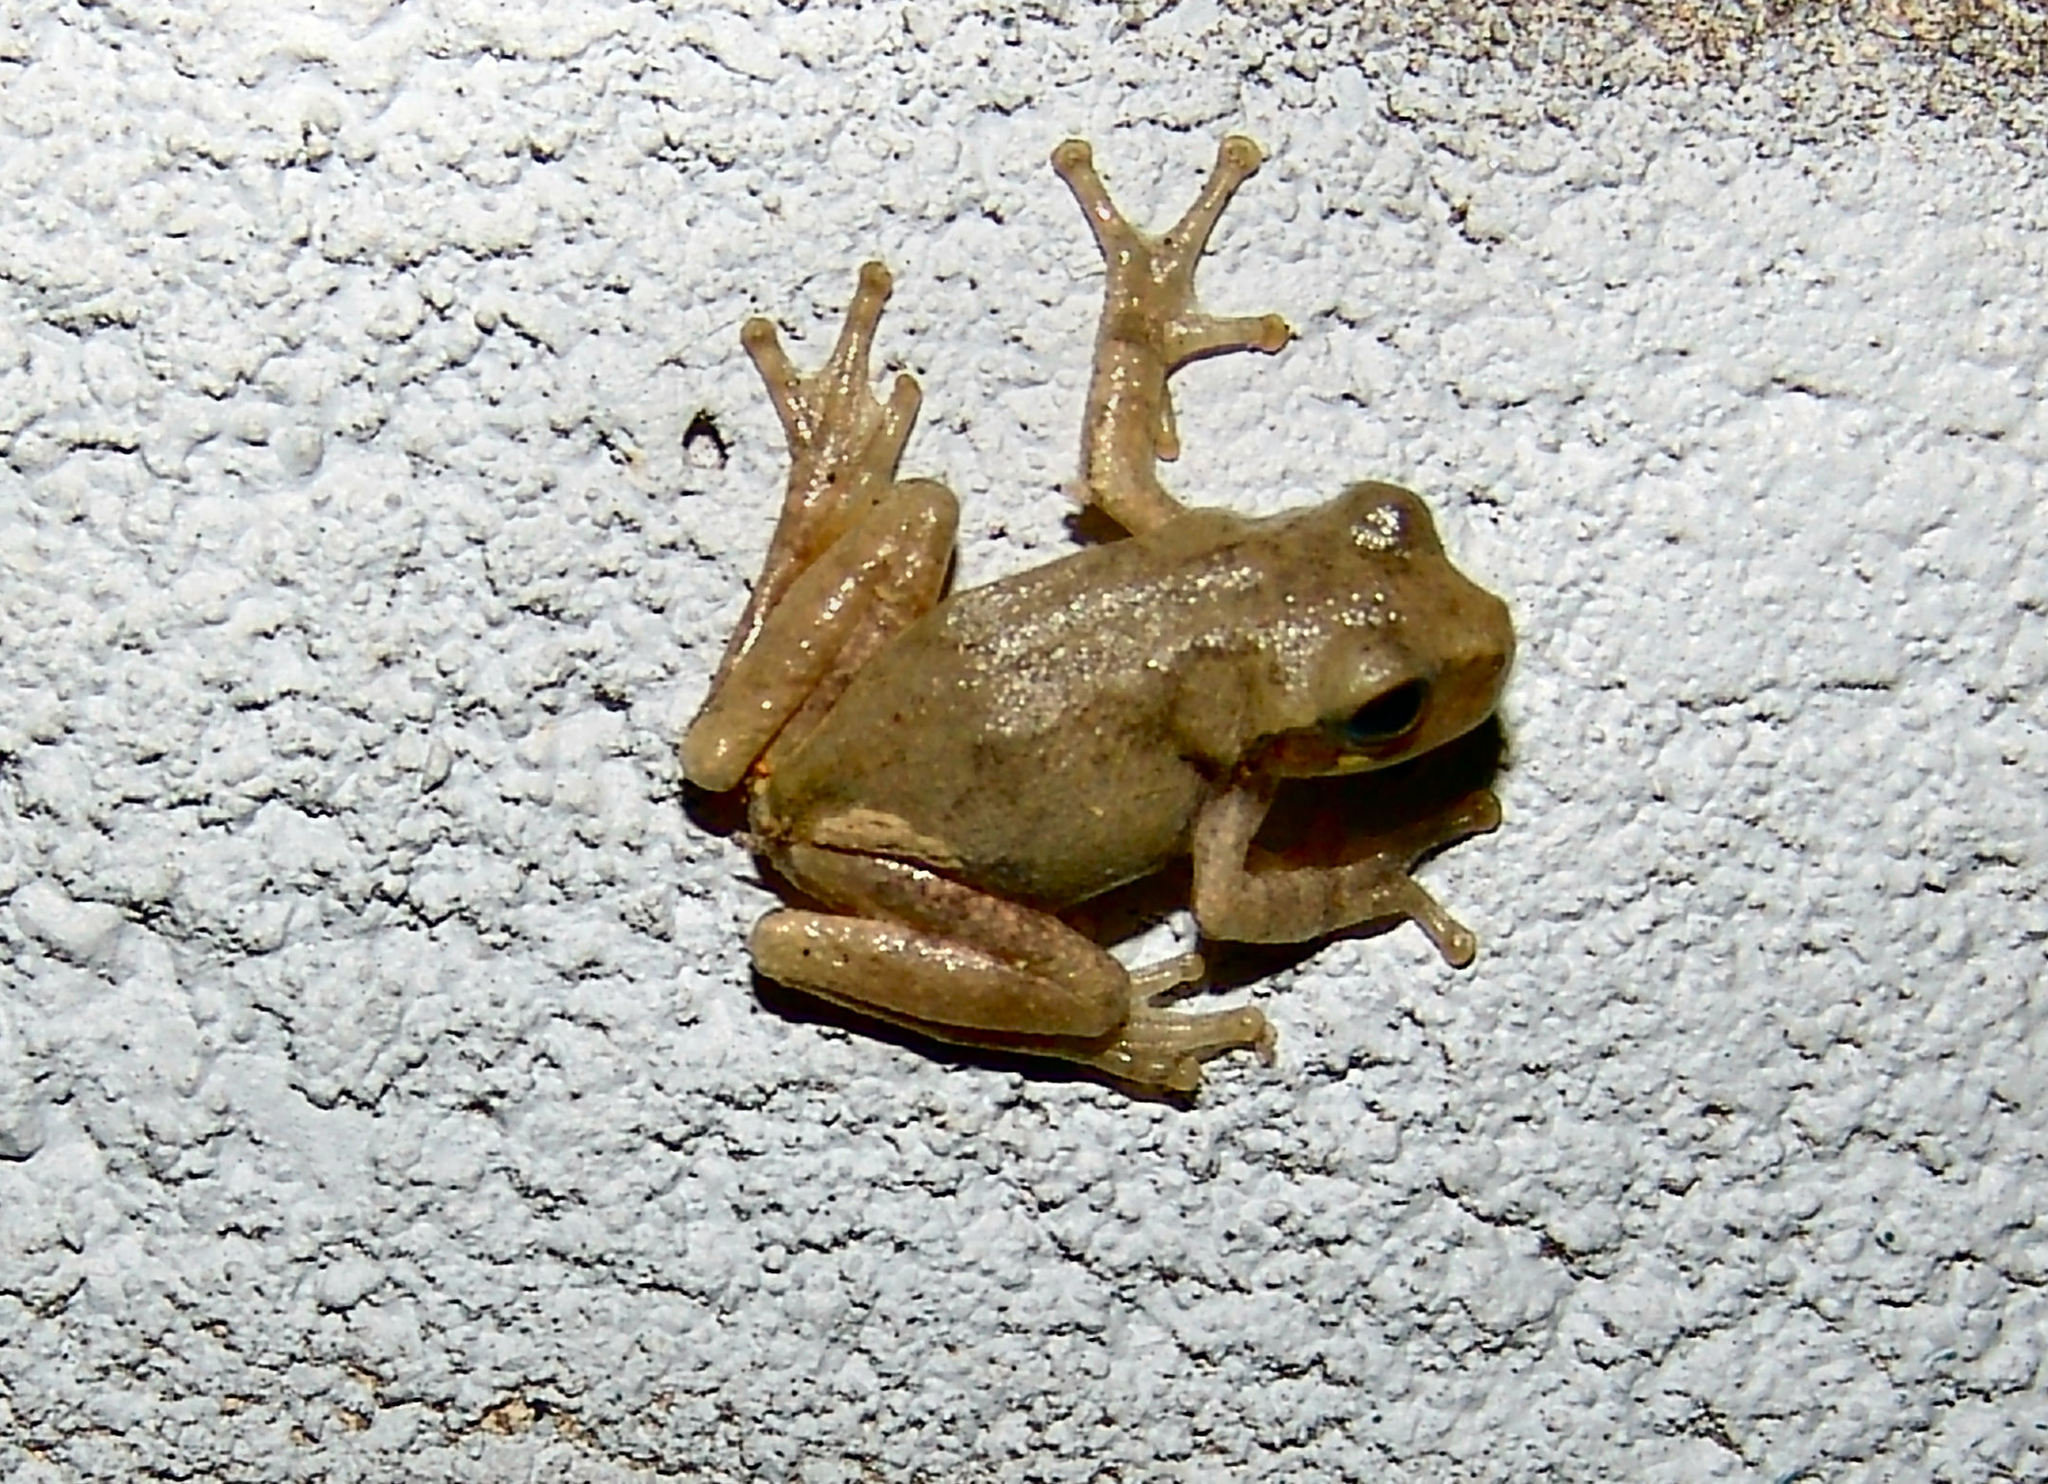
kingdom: Animalia
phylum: Chordata
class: Amphibia
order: Anura
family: Hylidae
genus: Dryophytes
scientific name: Dryophytes chrysoscelis
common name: Cope's gray treefrog
